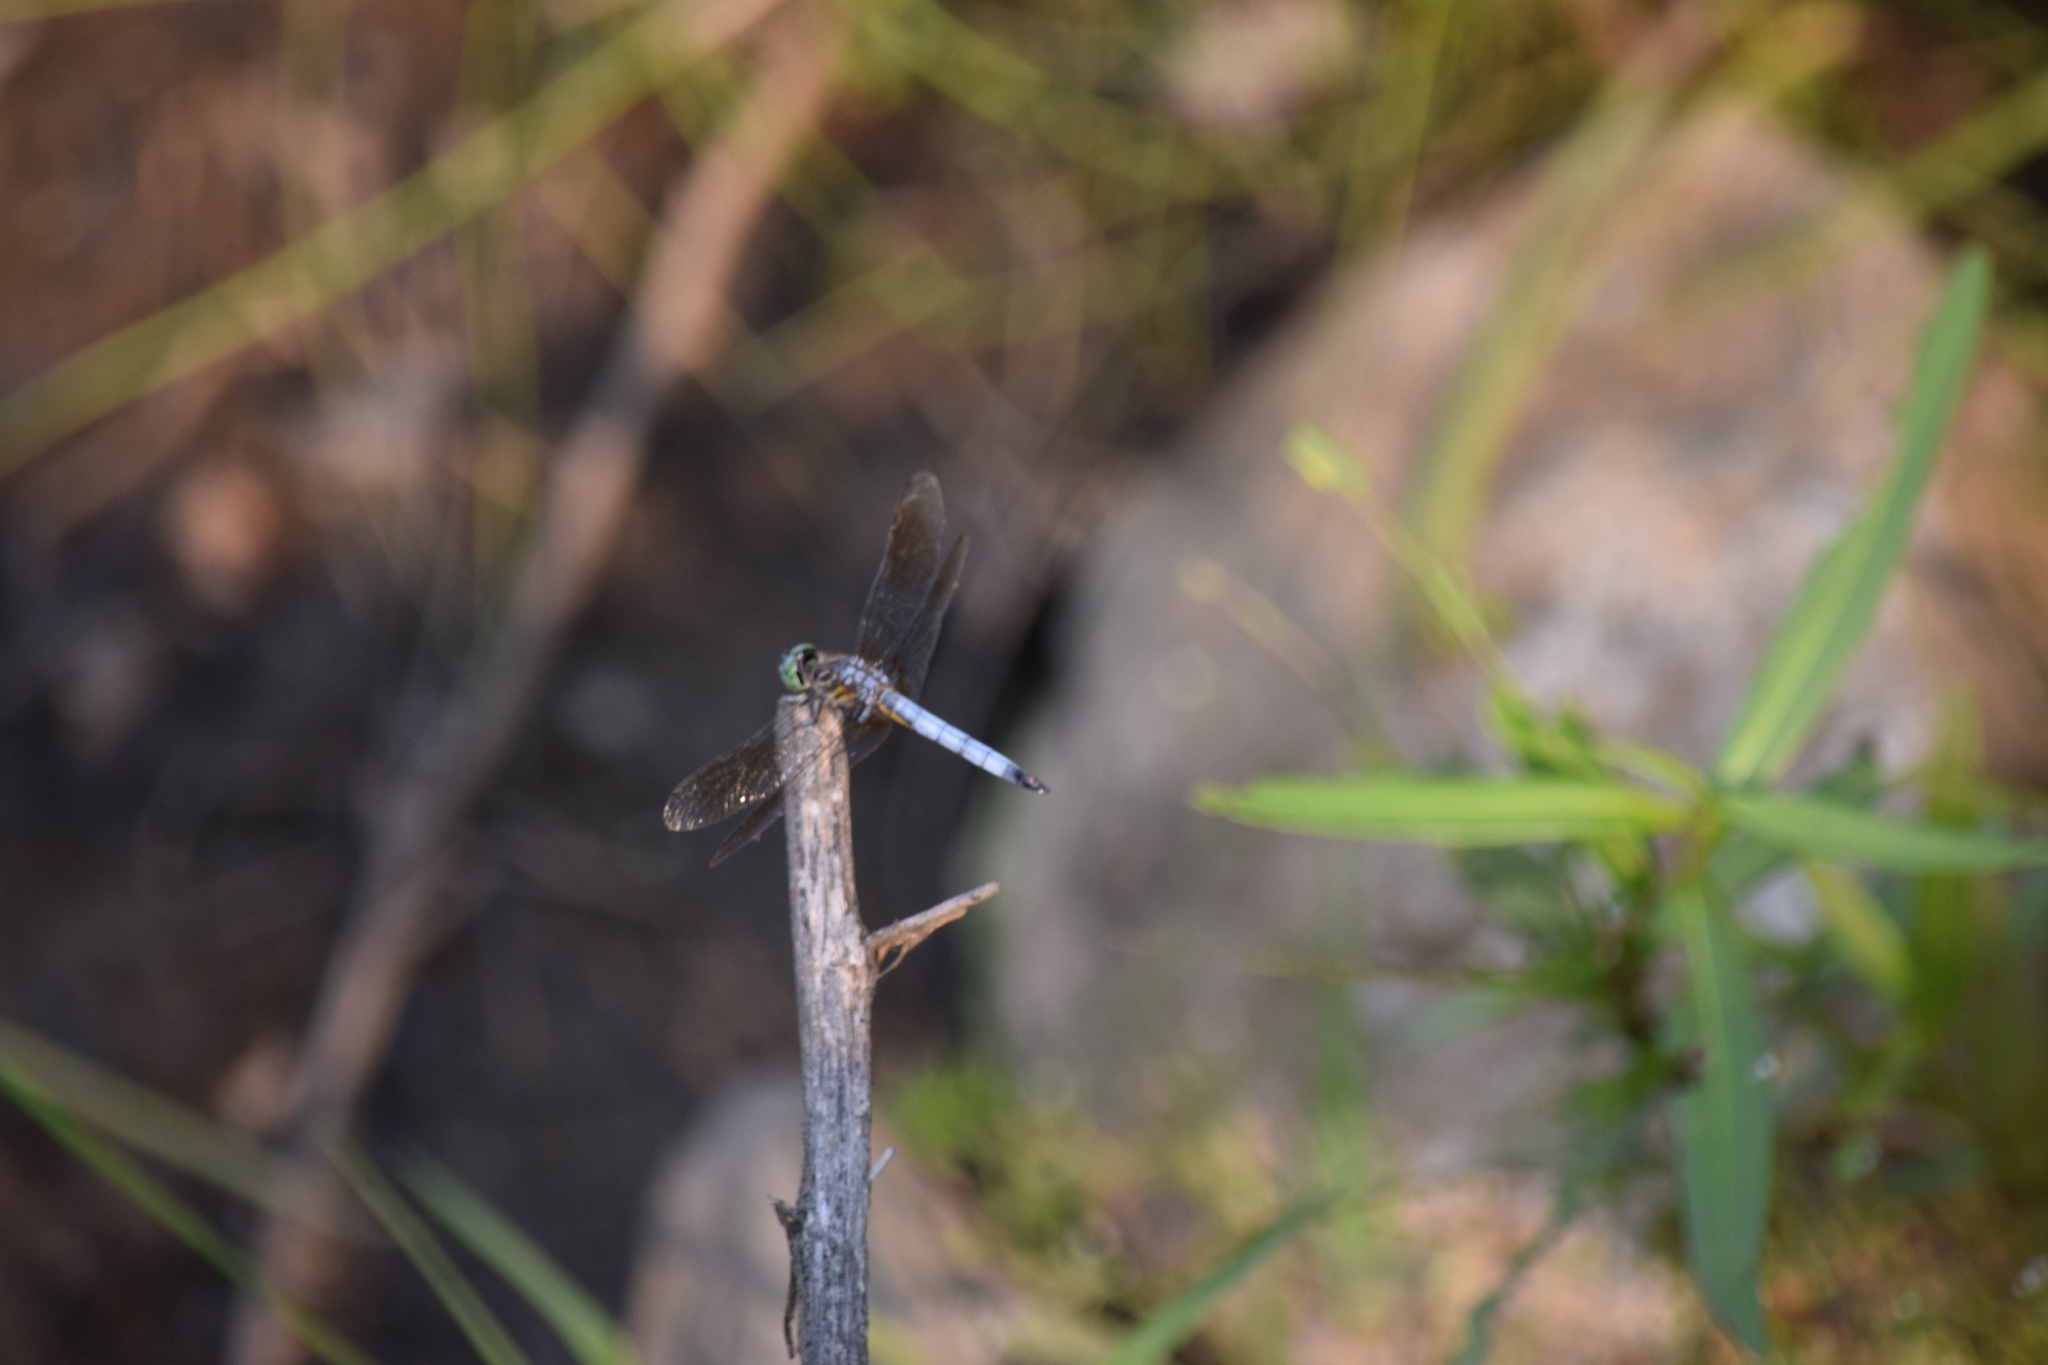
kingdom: Animalia
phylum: Arthropoda
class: Insecta
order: Odonata
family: Libellulidae
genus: Pachydiplax
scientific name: Pachydiplax longipennis
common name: Blue dasher
